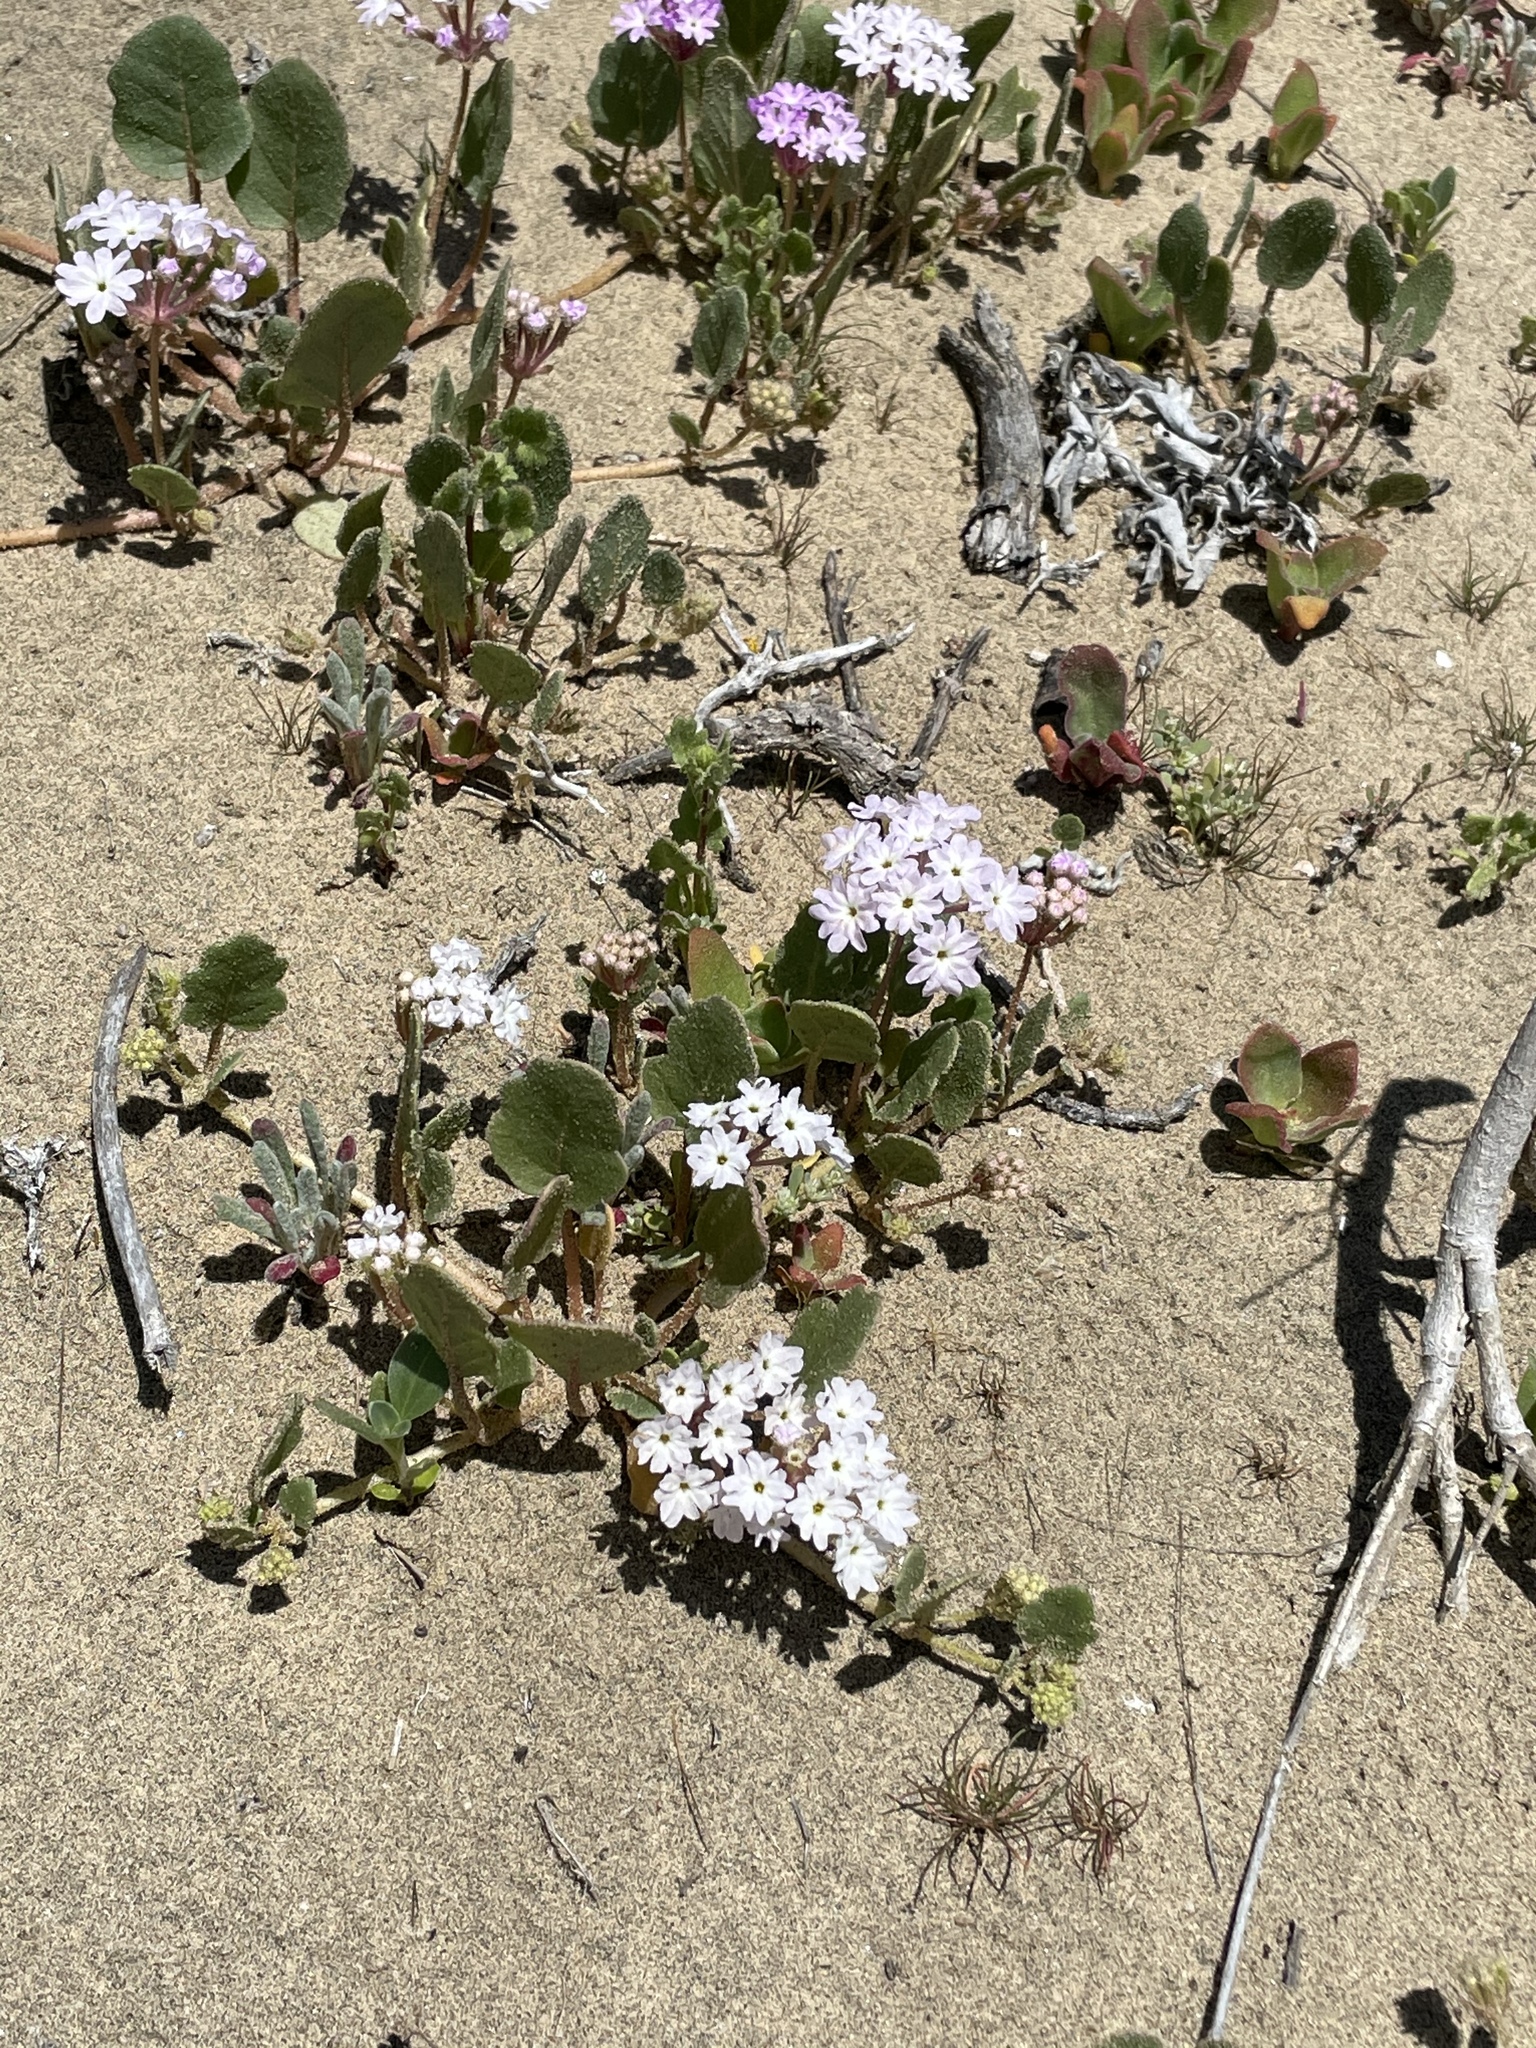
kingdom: Plantae
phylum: Tracheophyta
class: Magnoliopsida
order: Caryophyllales
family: Nyctaginaceae
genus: Abronia
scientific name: Abronia umbellata
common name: Sand-verbena
